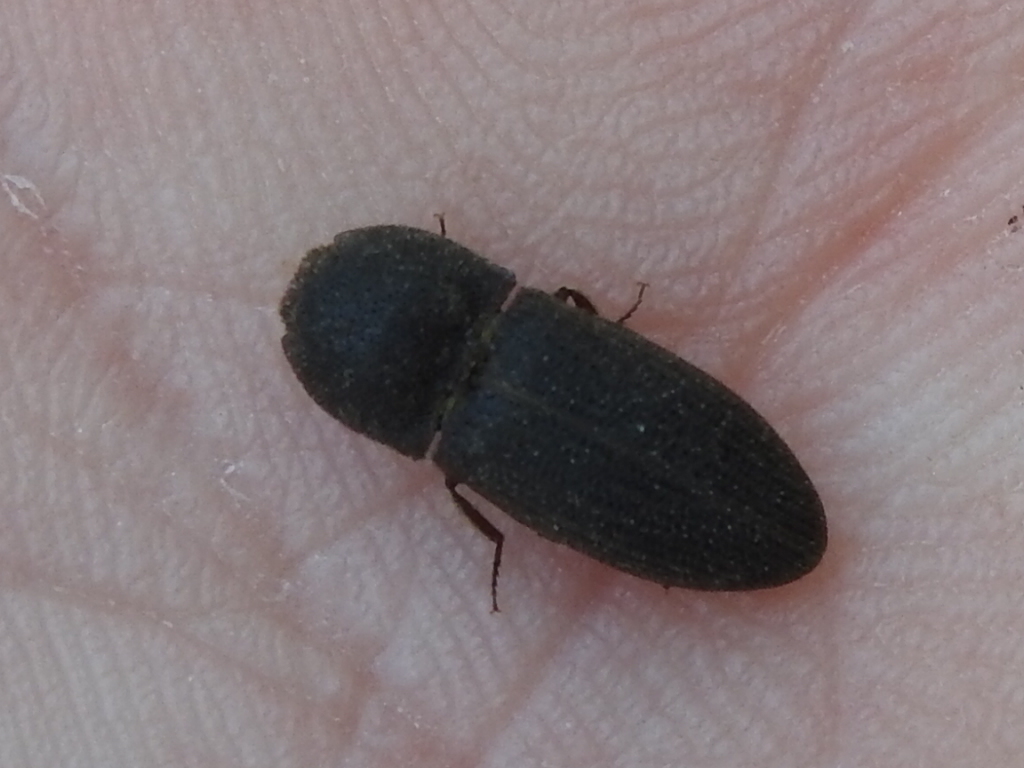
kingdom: Animalia
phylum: Arthropoda
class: Insecta
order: Coleoptera
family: Elateridae
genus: Agrypnus
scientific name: Agrypnus rectangularis
